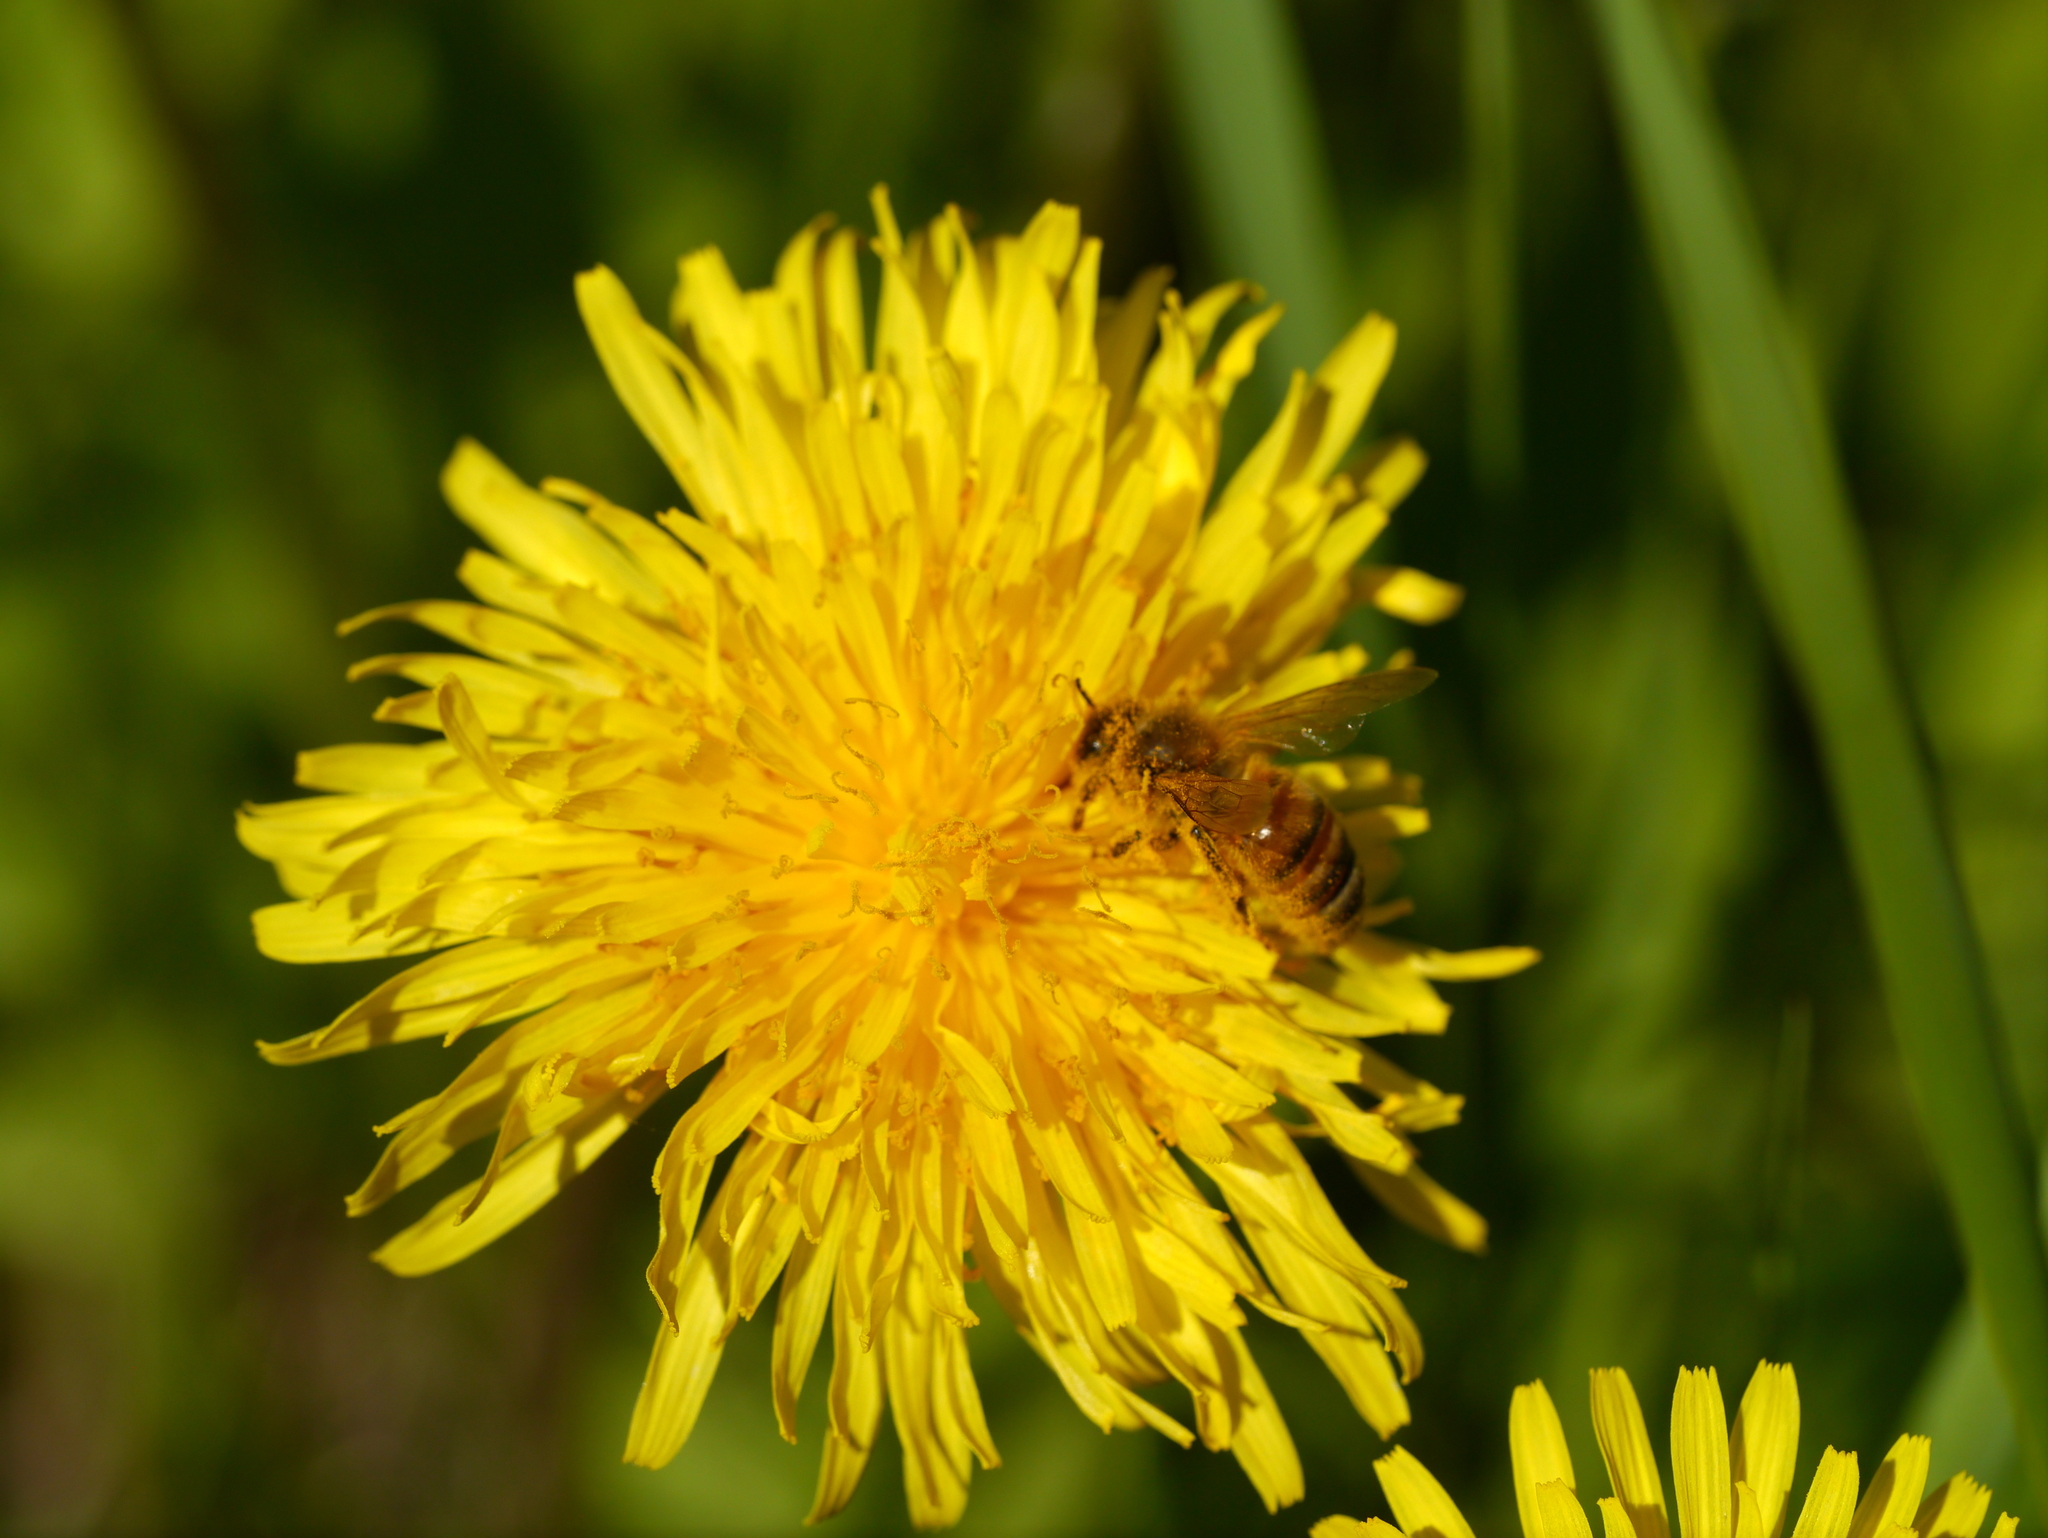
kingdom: Animalia
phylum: Arthropoda
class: Insecta
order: Hymenoptera
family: Apidae
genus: Apis
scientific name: Apis mellifera
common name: Honey bee
